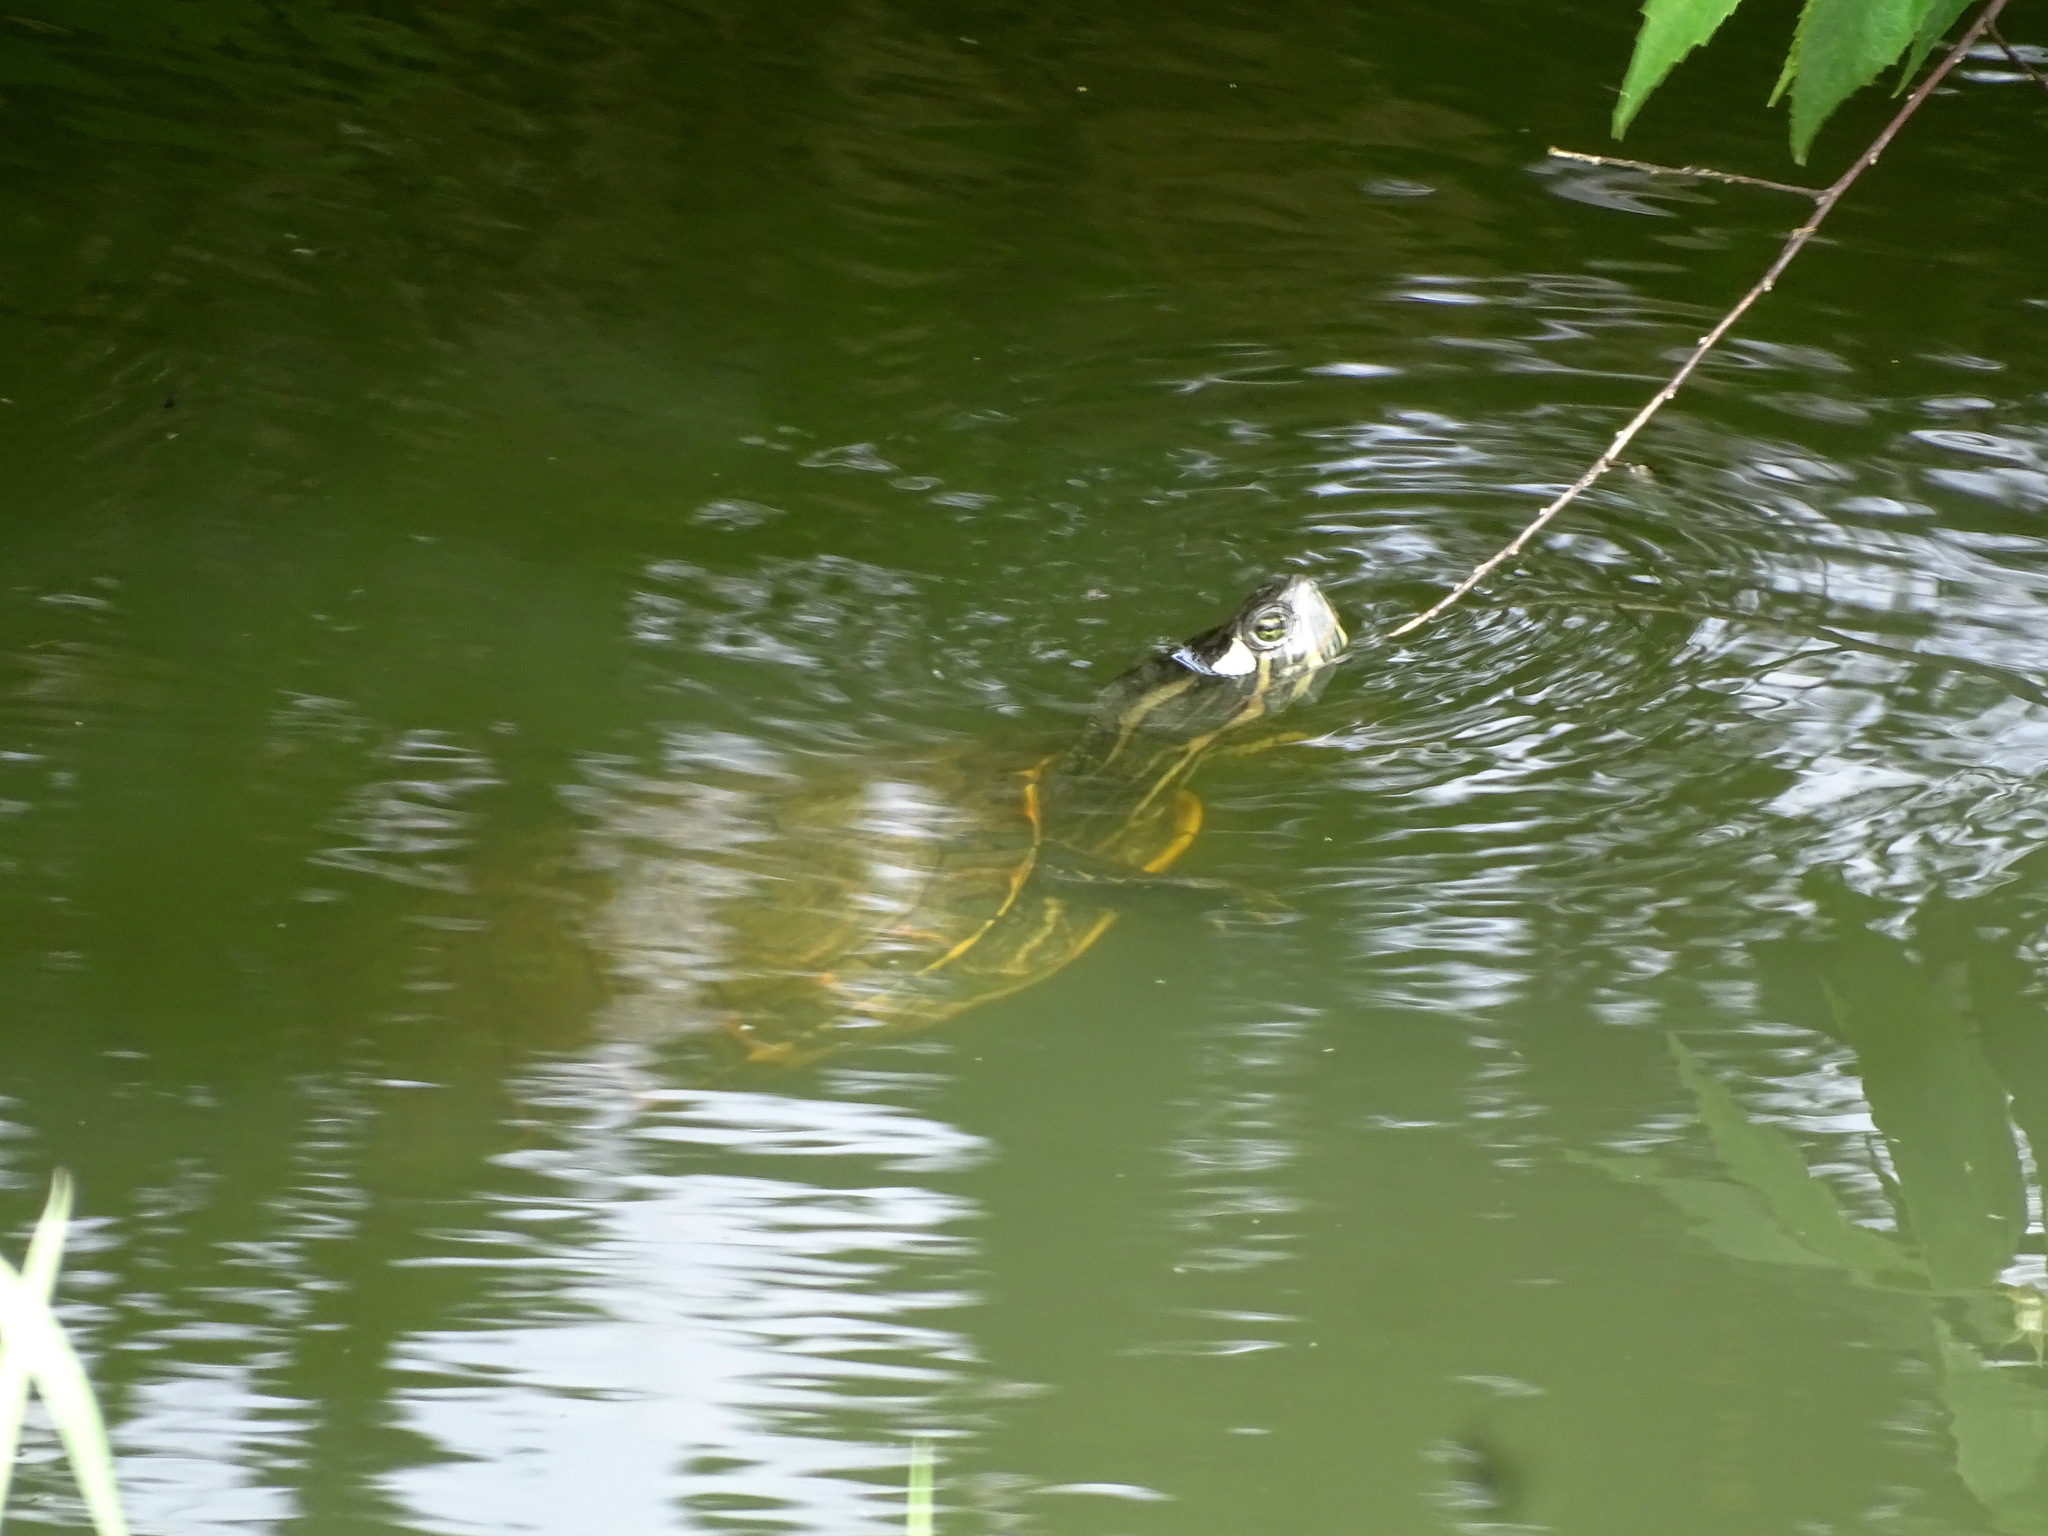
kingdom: Animalia
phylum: Chordata
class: Testudines
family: Emydidae
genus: Trachemys
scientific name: Trachemys venusta
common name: Mesoamerican slider
